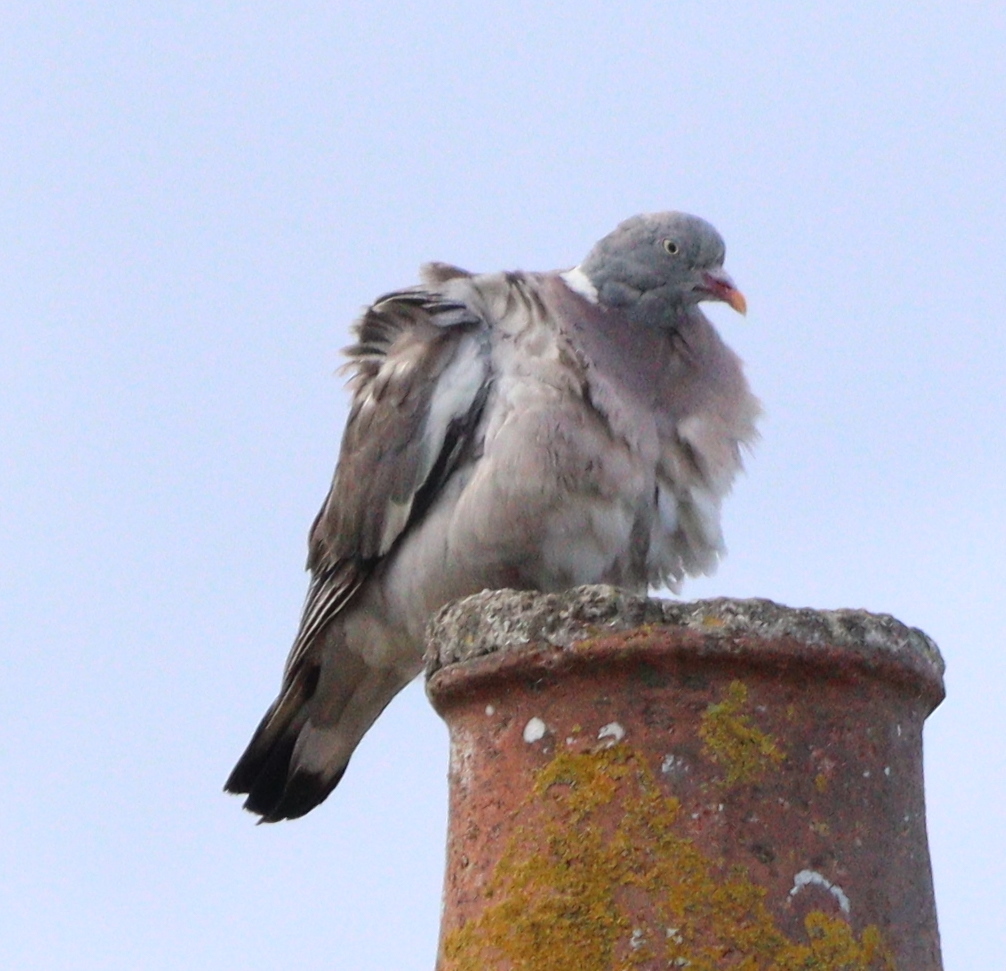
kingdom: Animalia
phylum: Chordata
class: Aves
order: Columbiformes
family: Columbidae
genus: Columba
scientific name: Columba palumbus
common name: Common wood pigeon
